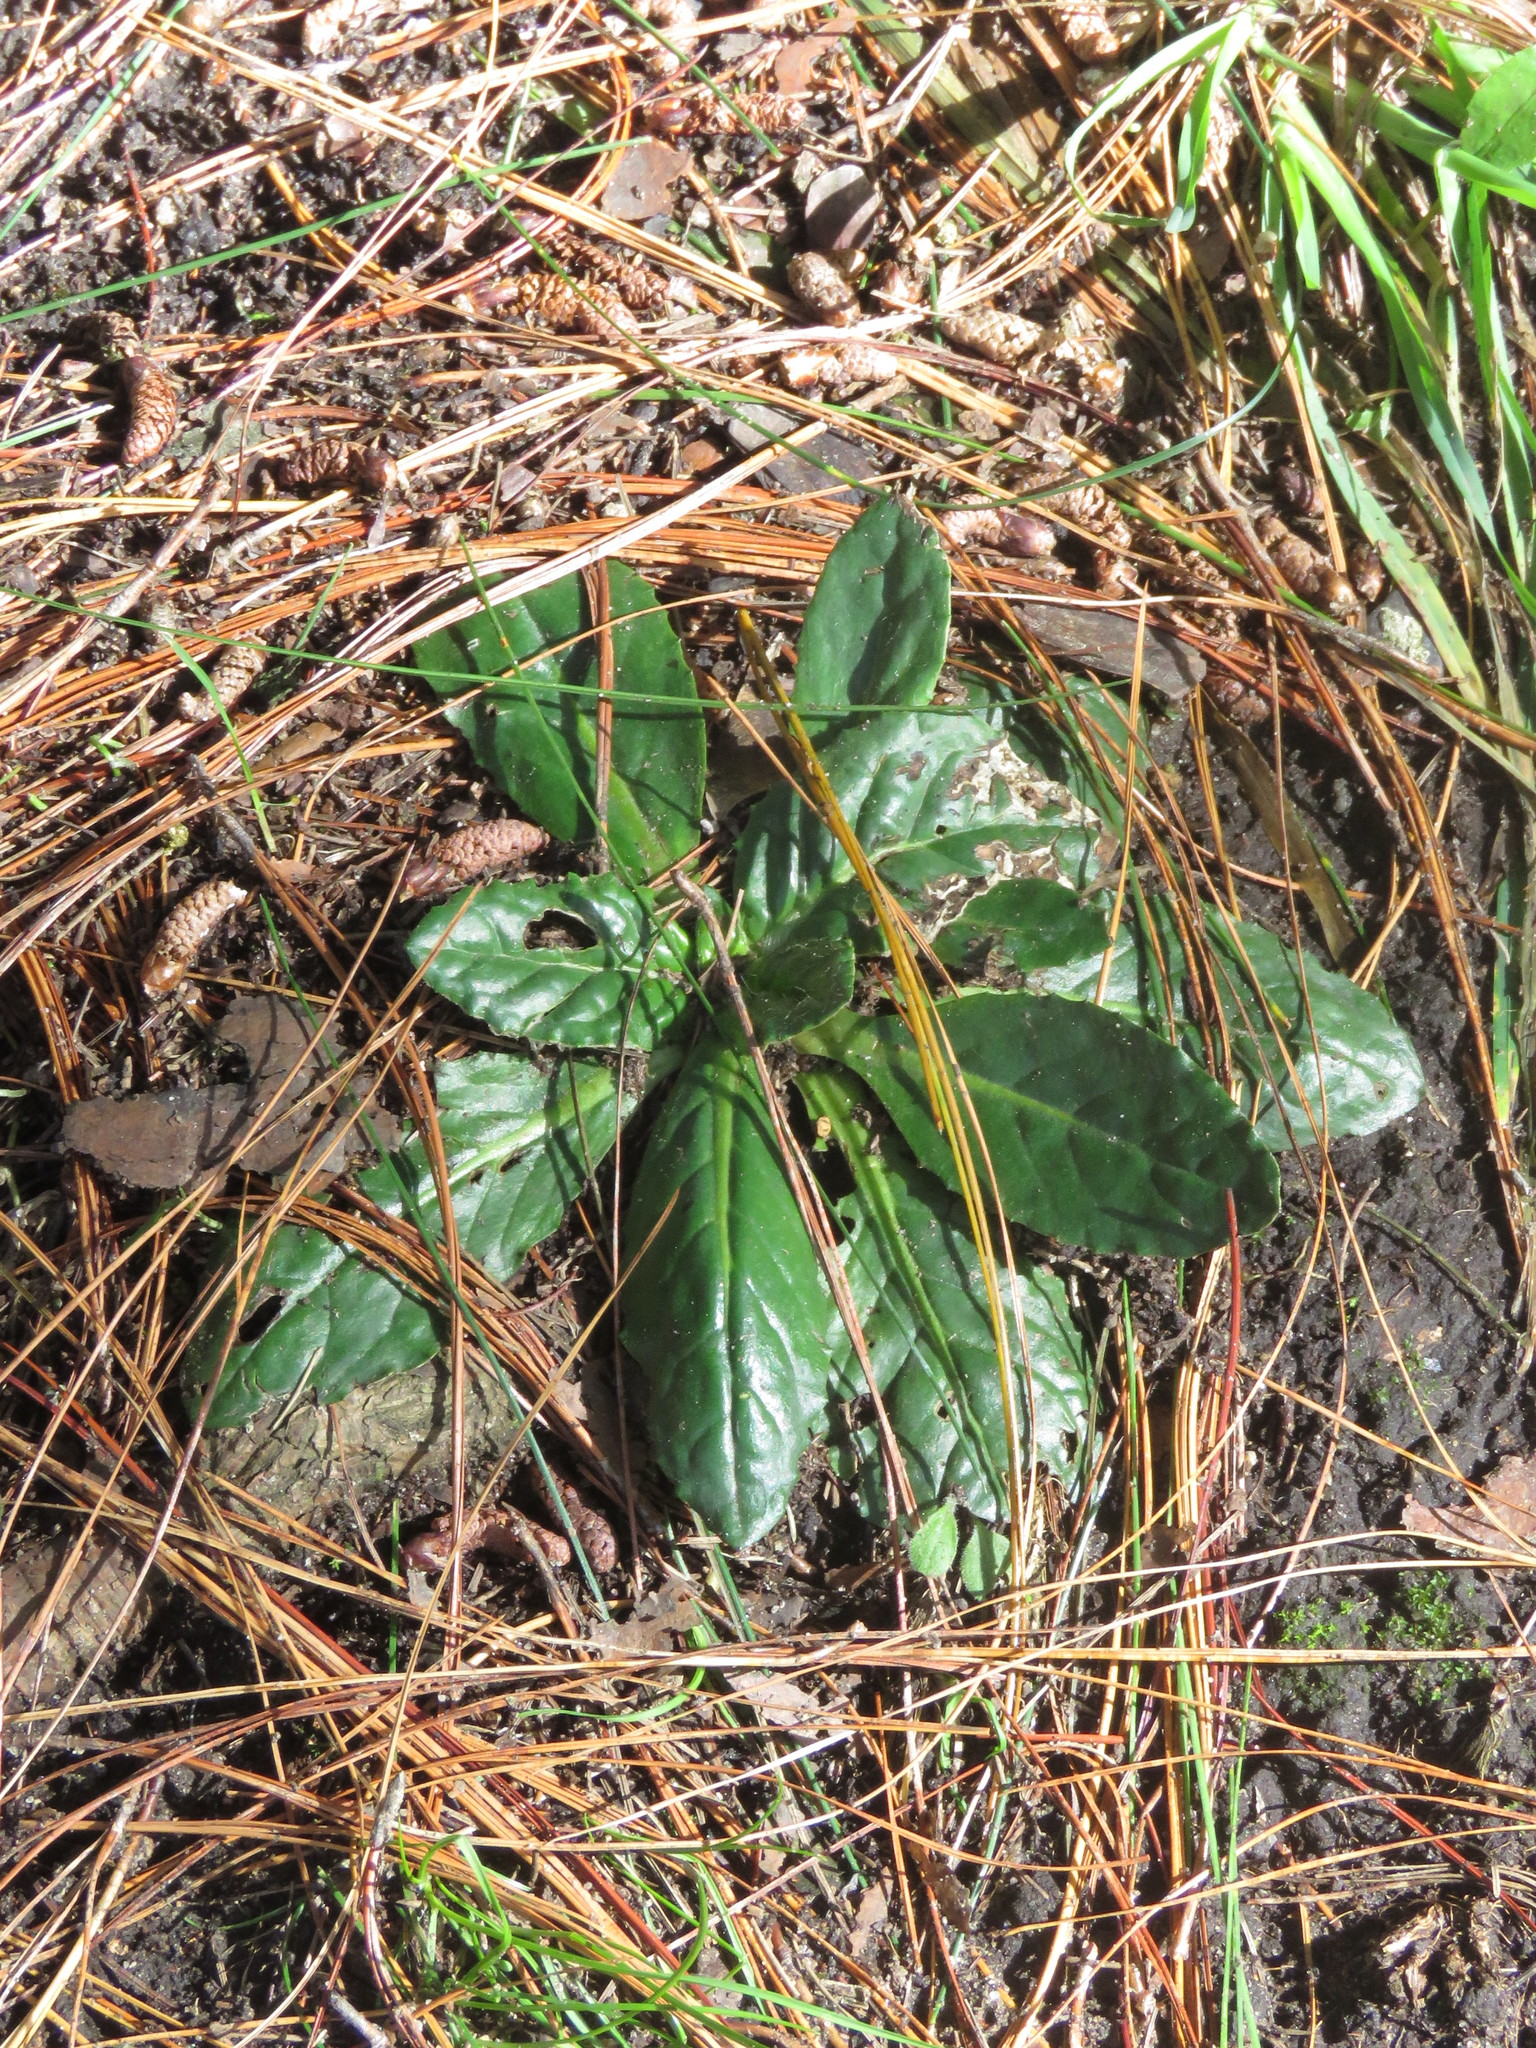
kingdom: Plantae
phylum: Tracheophyta
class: Magnoliopsida
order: Asterales
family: Asteraceae
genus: Chaptalia
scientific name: Chaptalia exscapa
